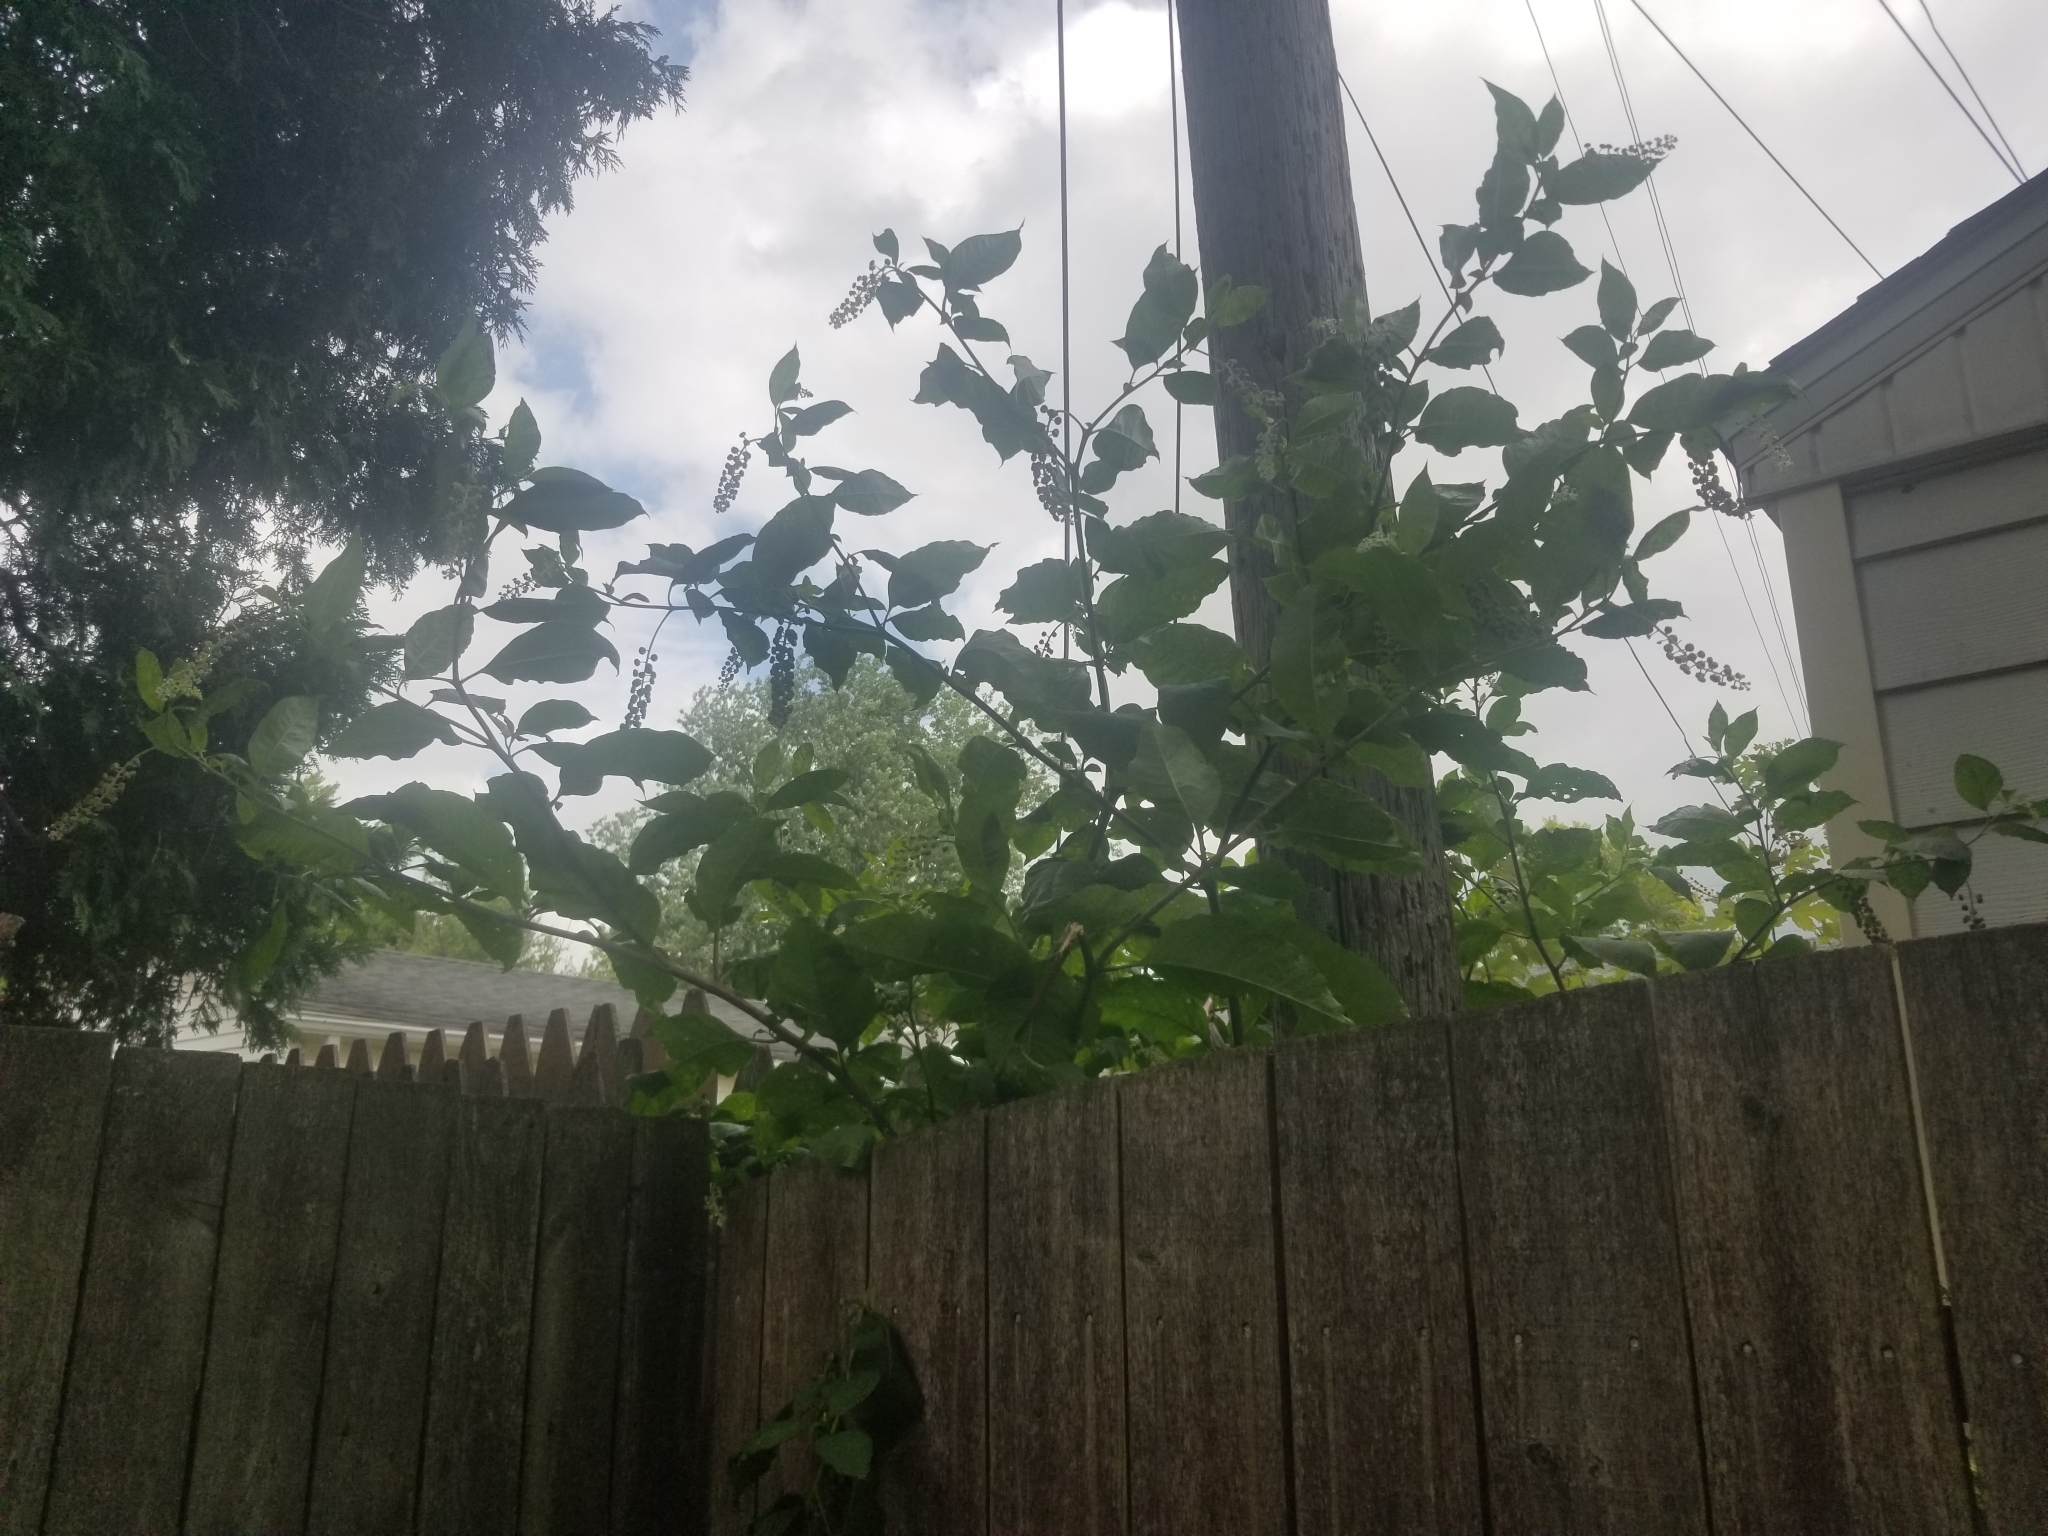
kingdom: Plantae
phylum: Tracheophyta
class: Magnoliopsida
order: Caryophyllales
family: Phytolaccaceae
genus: Phytolacca
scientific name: Phytolacca americana
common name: American pokeweed
